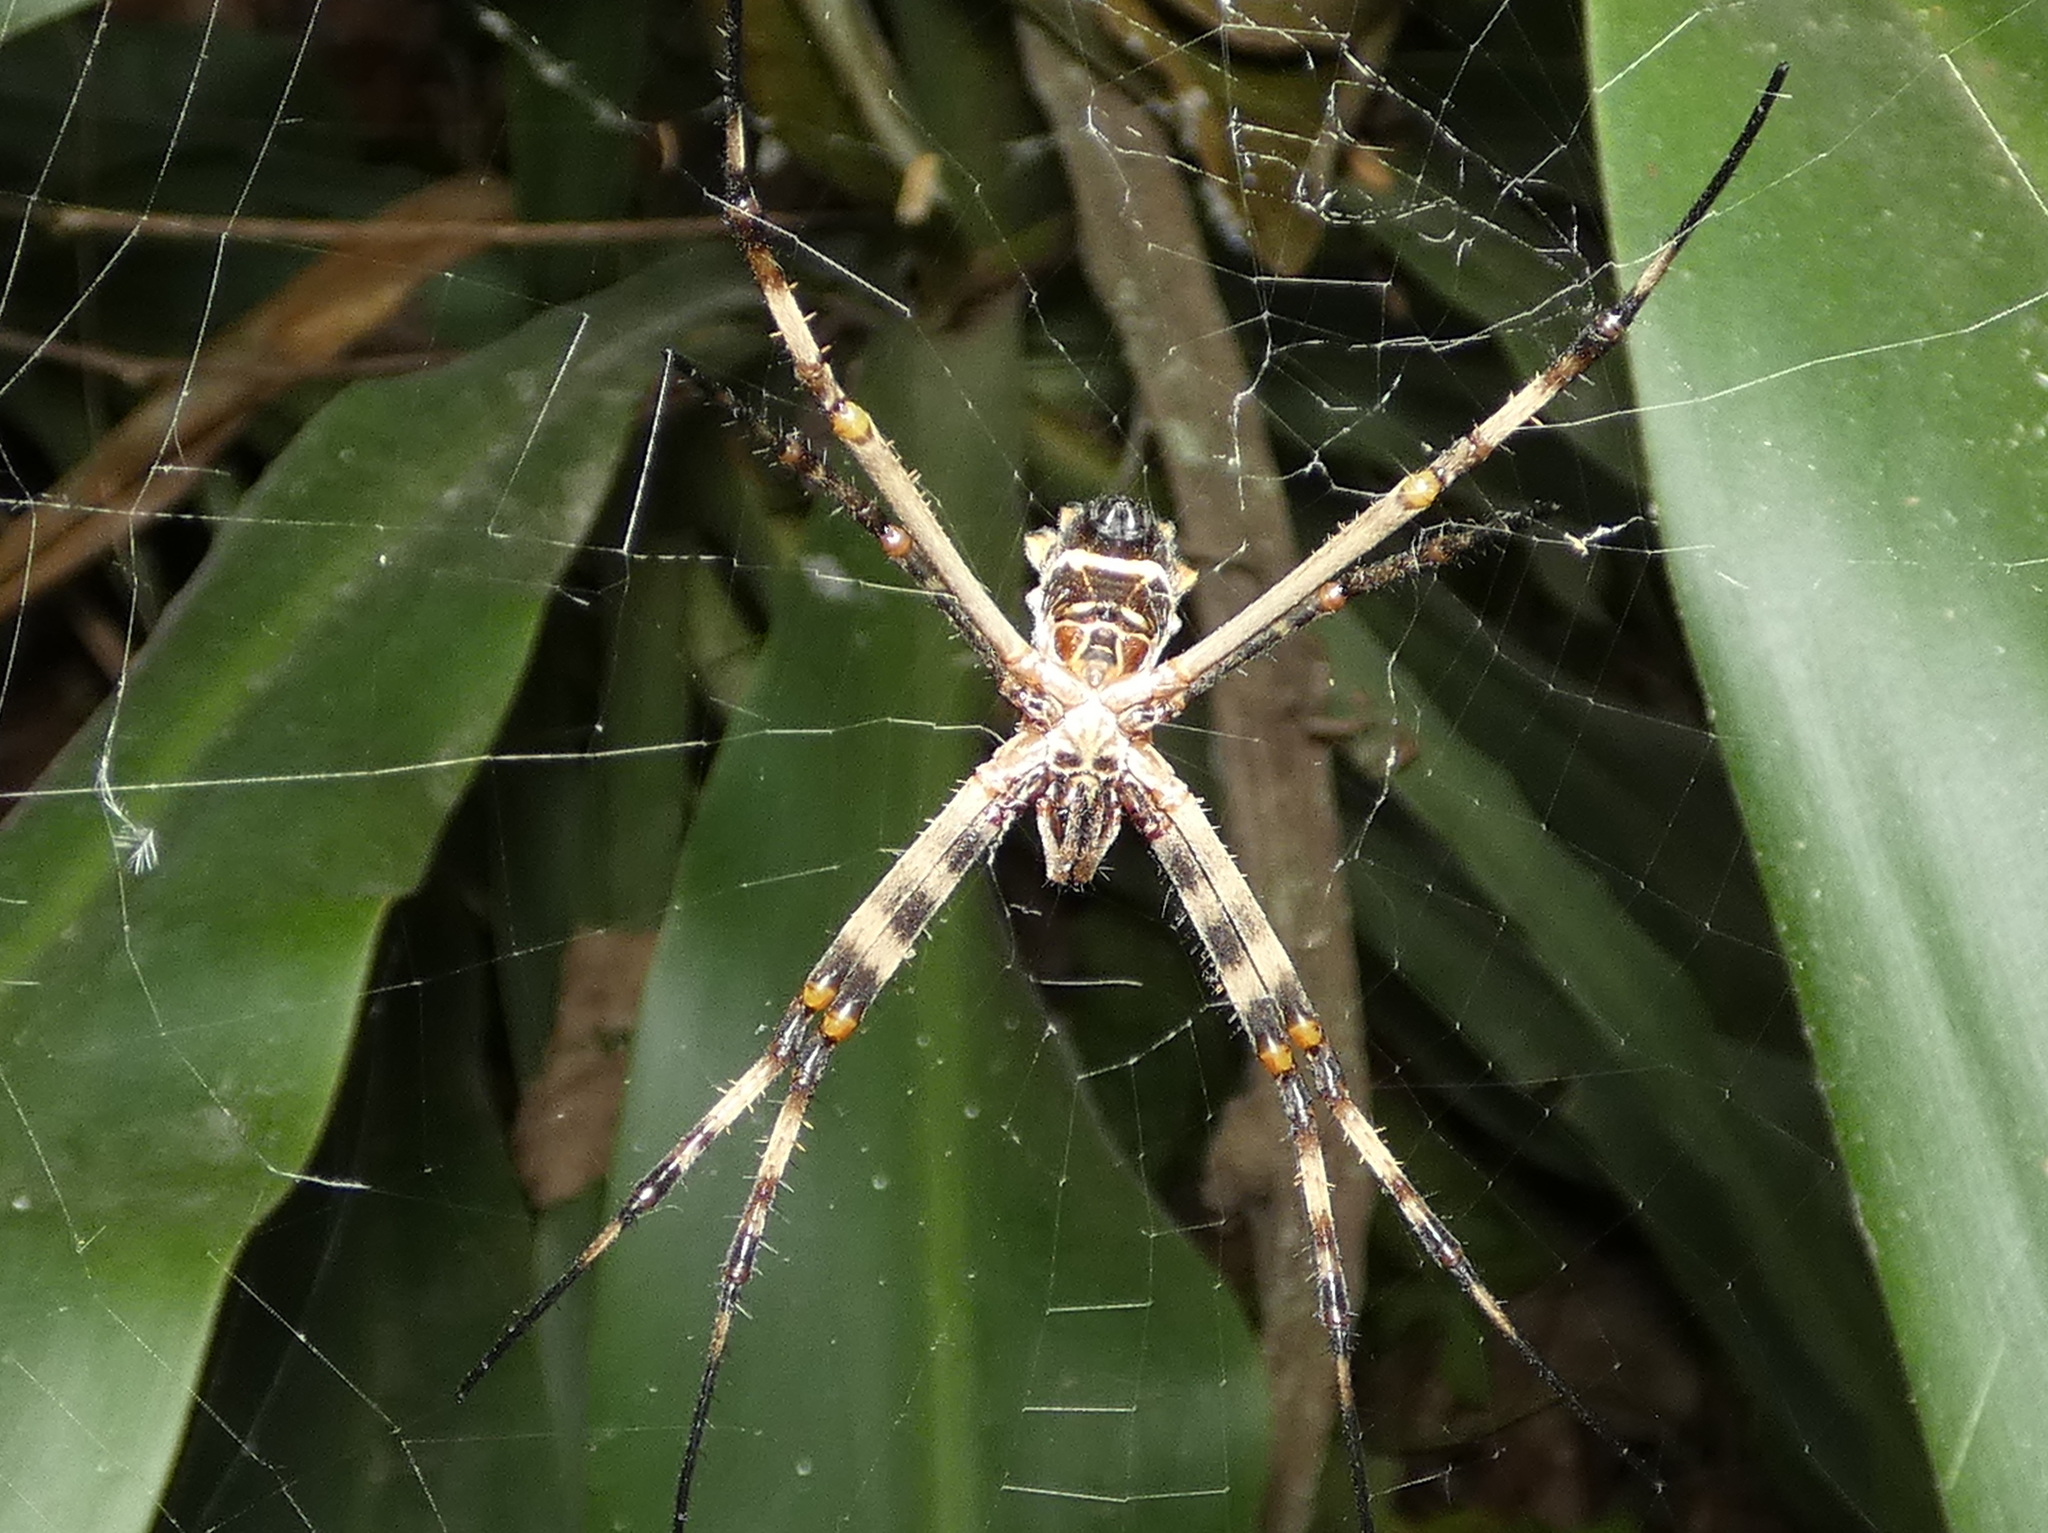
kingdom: Animalia
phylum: Arthropoda
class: Arachnida
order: Araneae
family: Araneidae
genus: Argiope
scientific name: Argiope argentata
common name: Orb weavers
